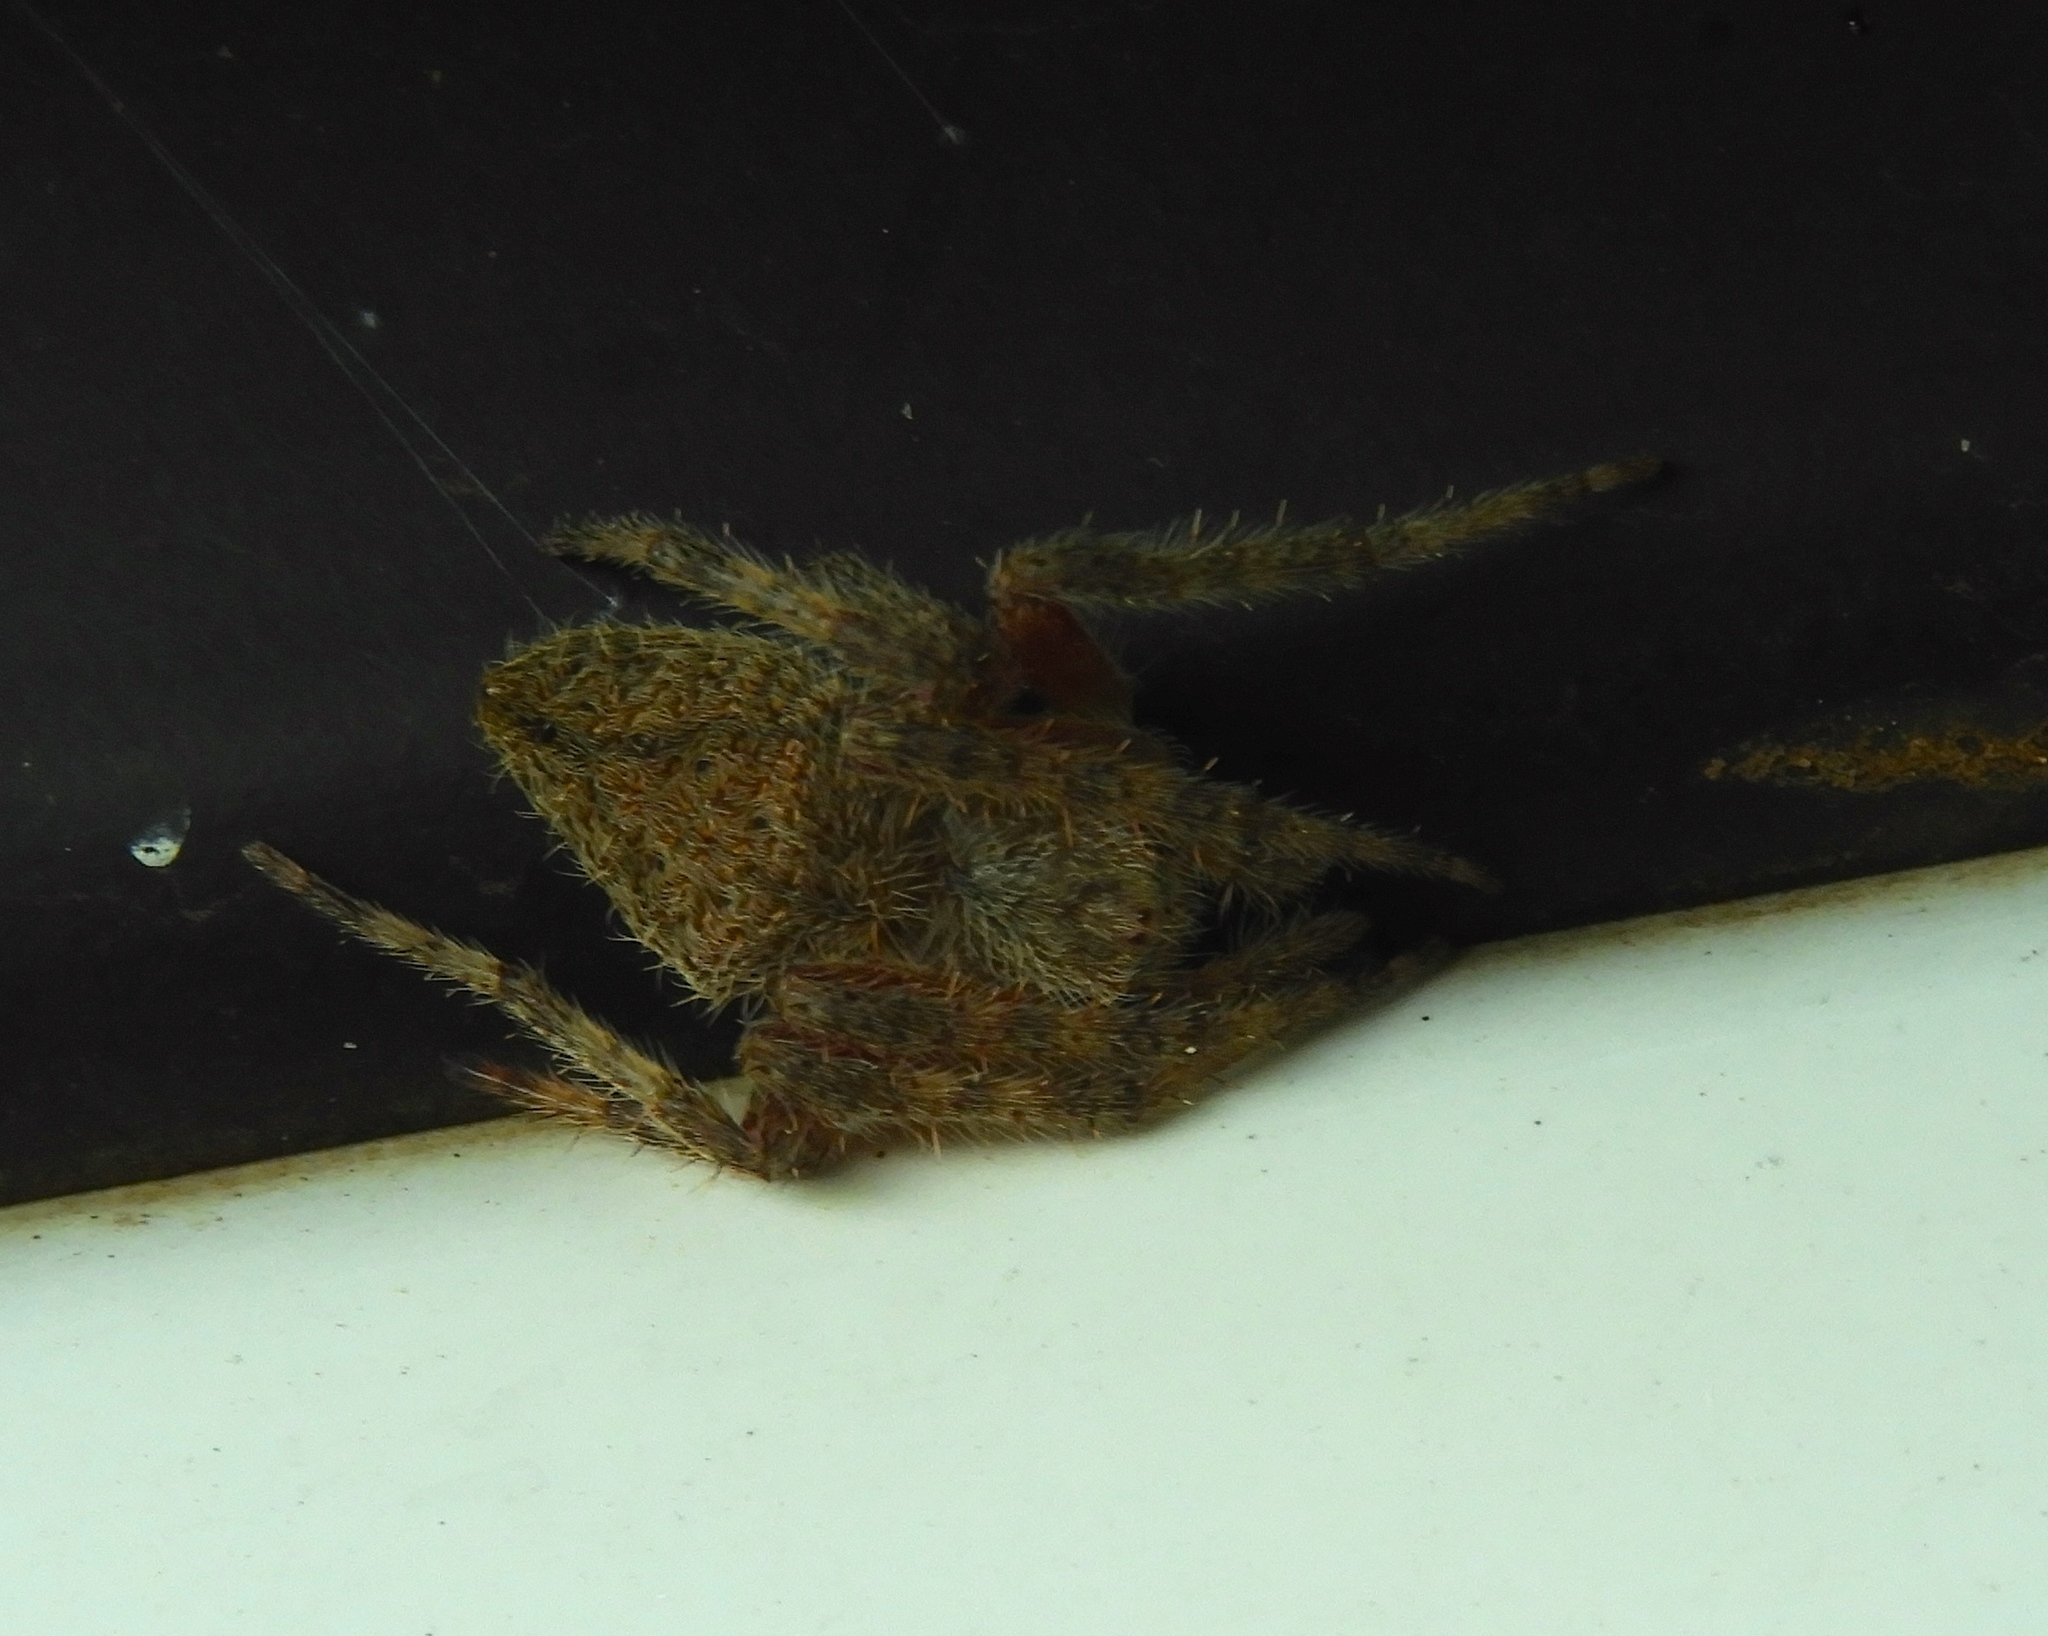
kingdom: Animalia
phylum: Arthropoda
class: Arachnida
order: Araneae
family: Araneidae
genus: Eriophora
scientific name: Eriophora edax
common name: Orb weavers
